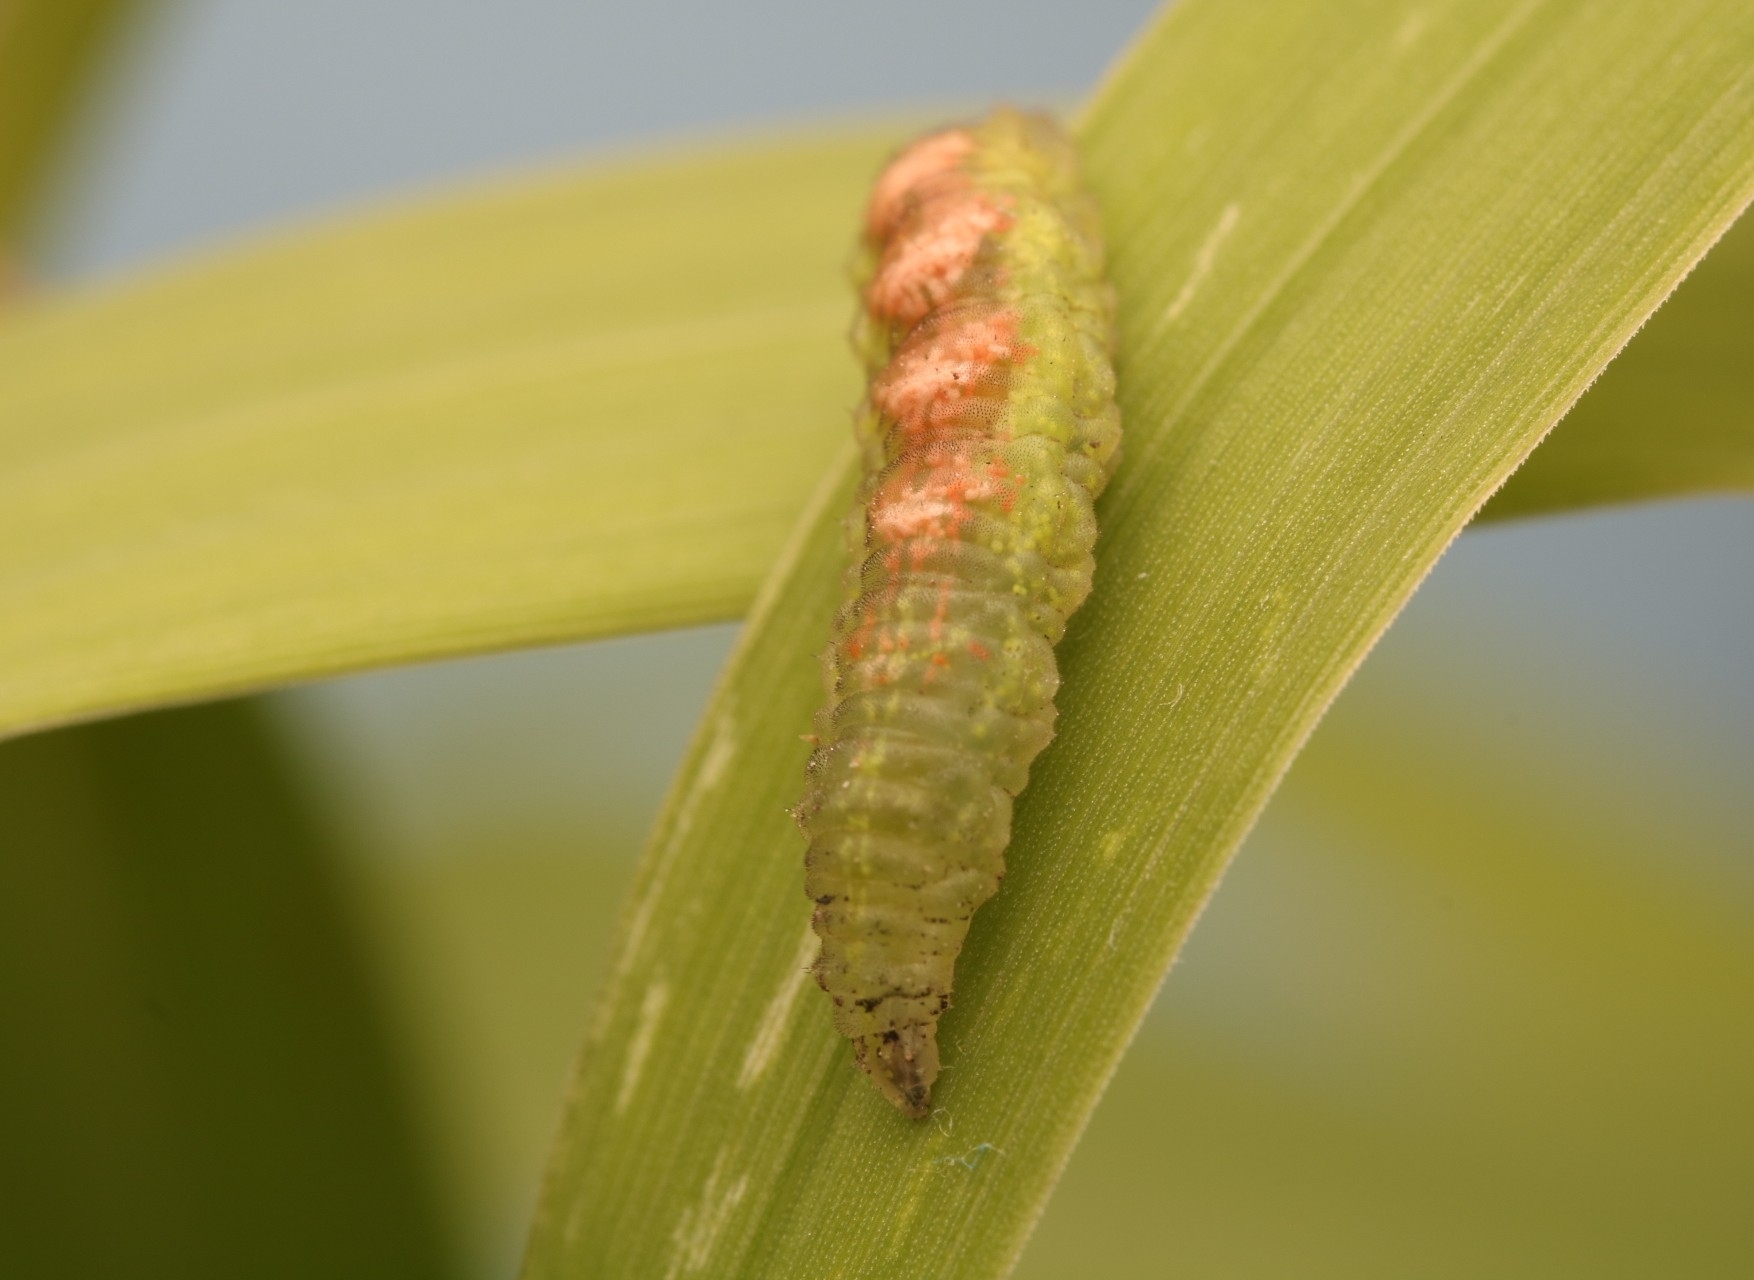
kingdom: Animalia
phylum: Arthropoda
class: Insecta
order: Diptera
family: Syrphidae
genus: Eupeodes
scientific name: Eupeodes pomus
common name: Short-tailed aphideater
